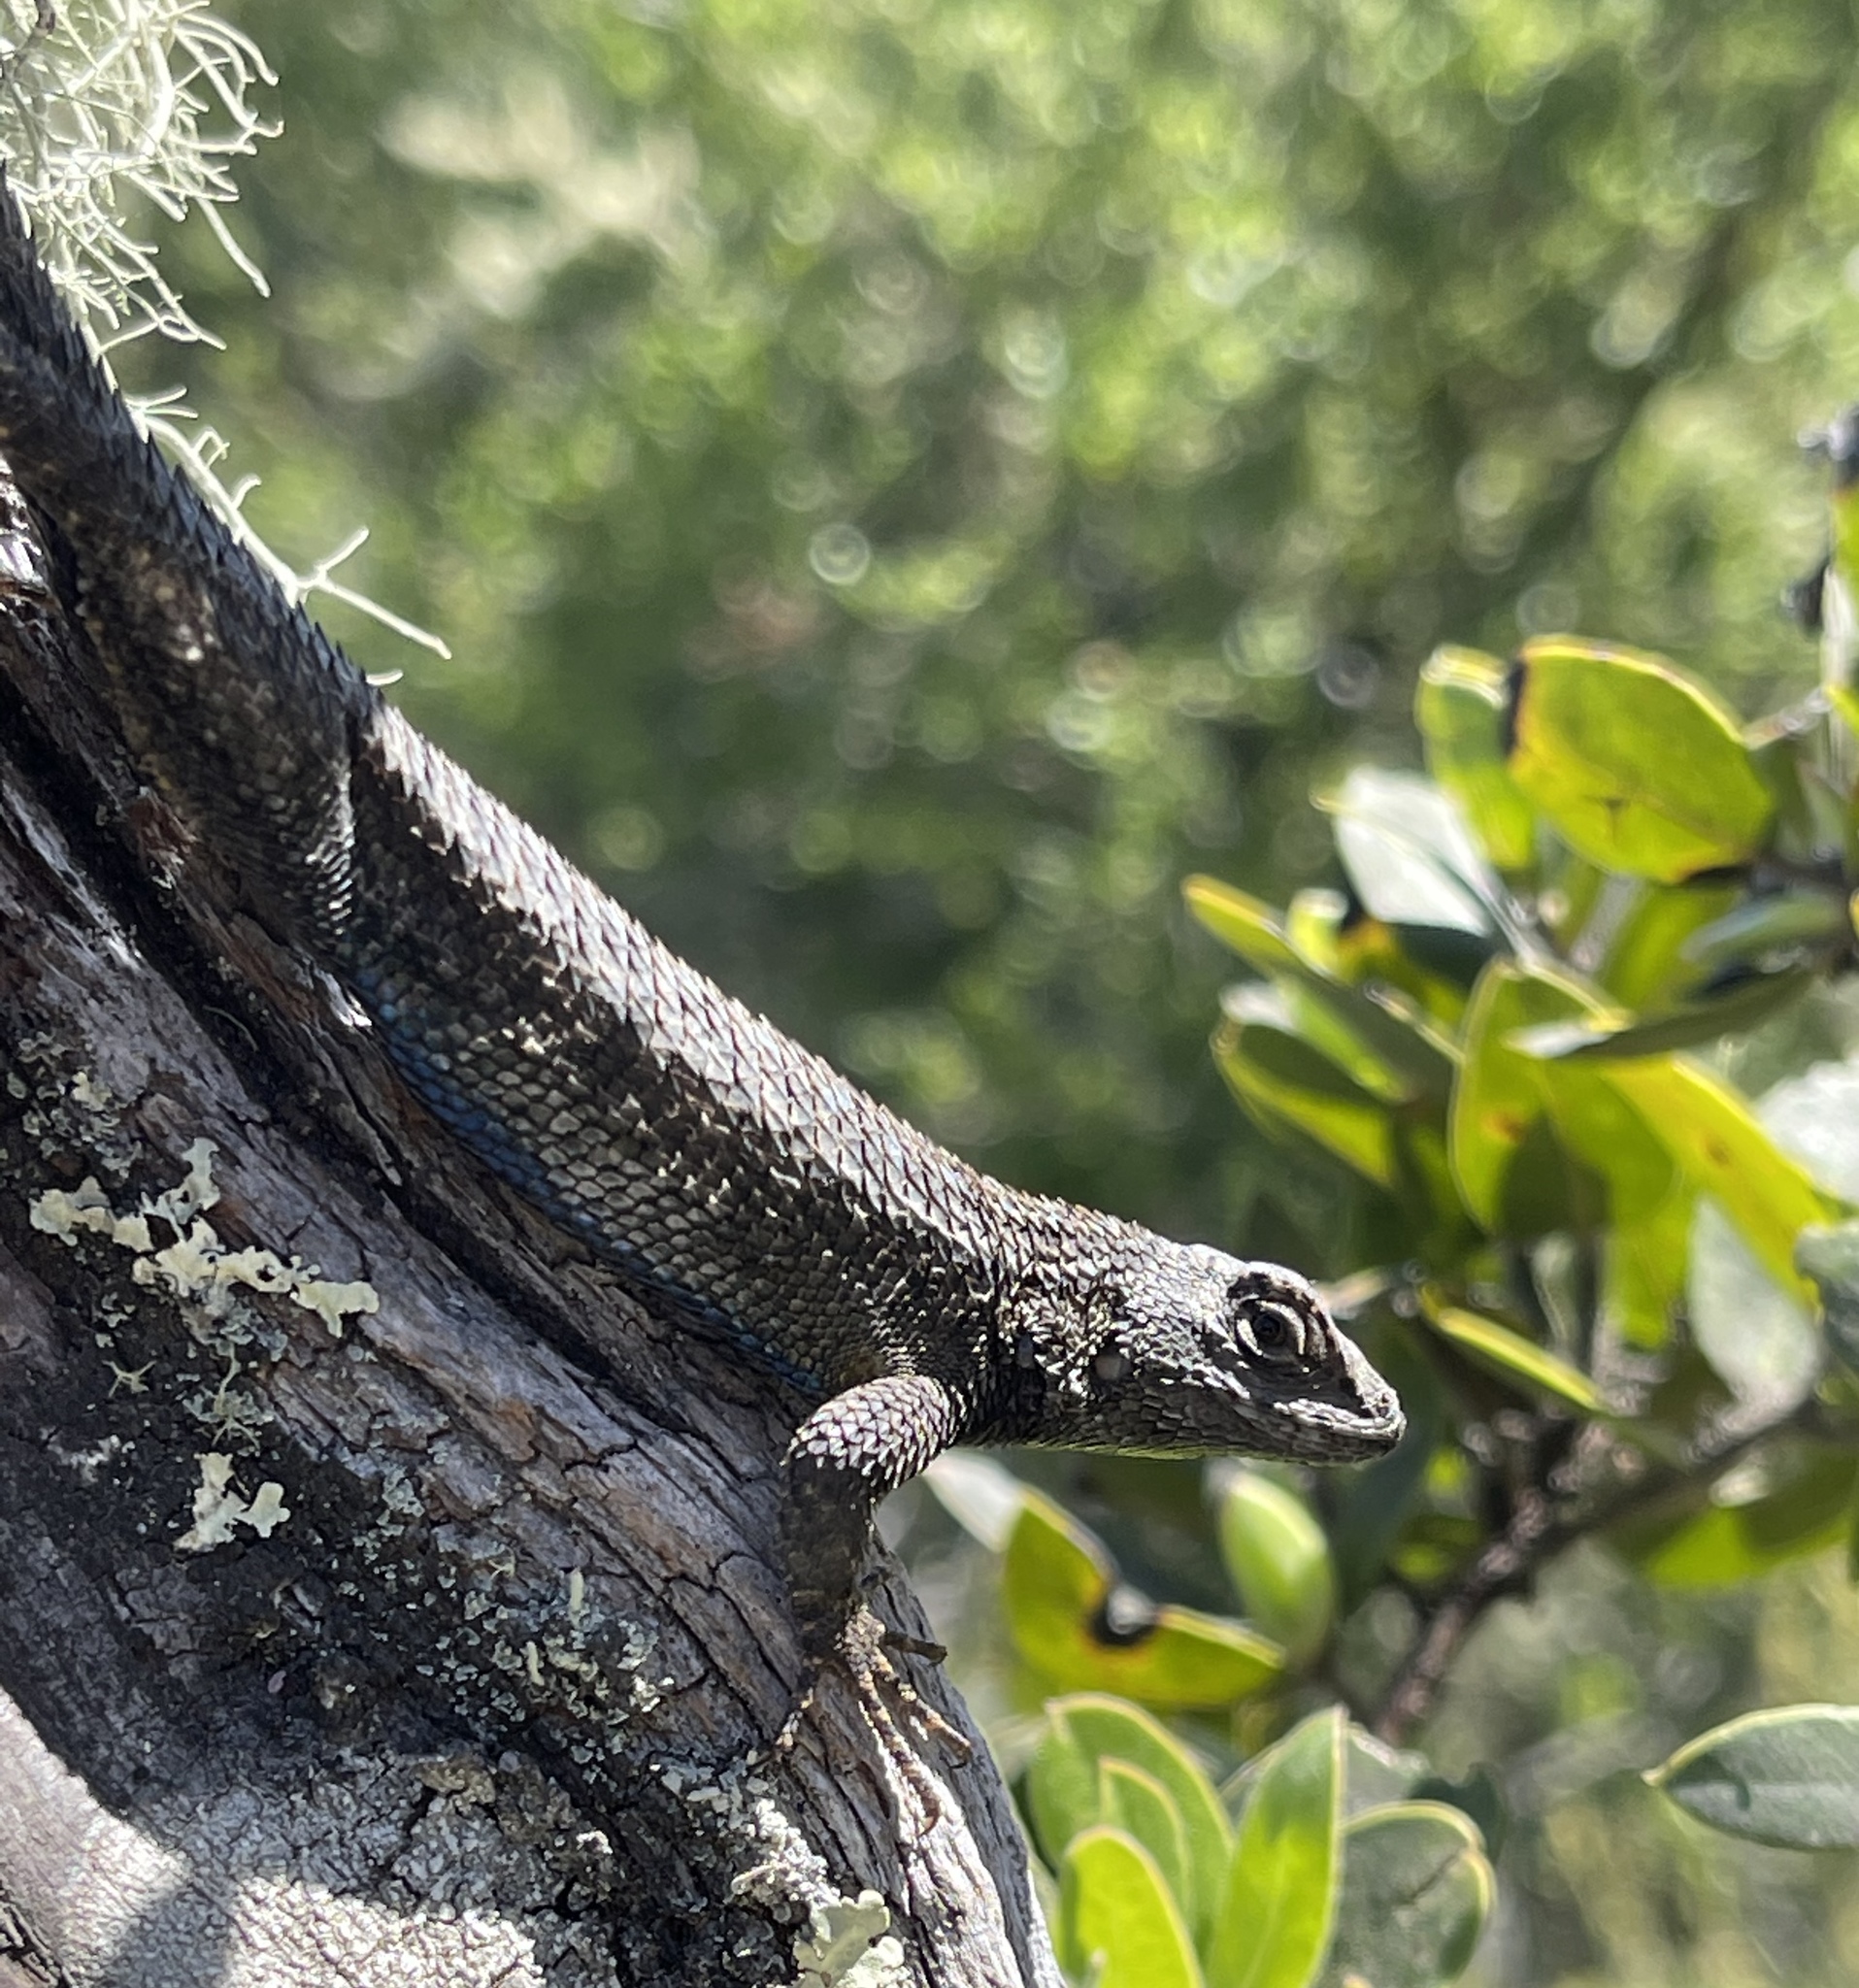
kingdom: Animalia
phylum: Chordata
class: Squamata
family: Phrynosomatidae
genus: Sceloporus
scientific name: Sceloporus occidentalis
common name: Western fence lizard
